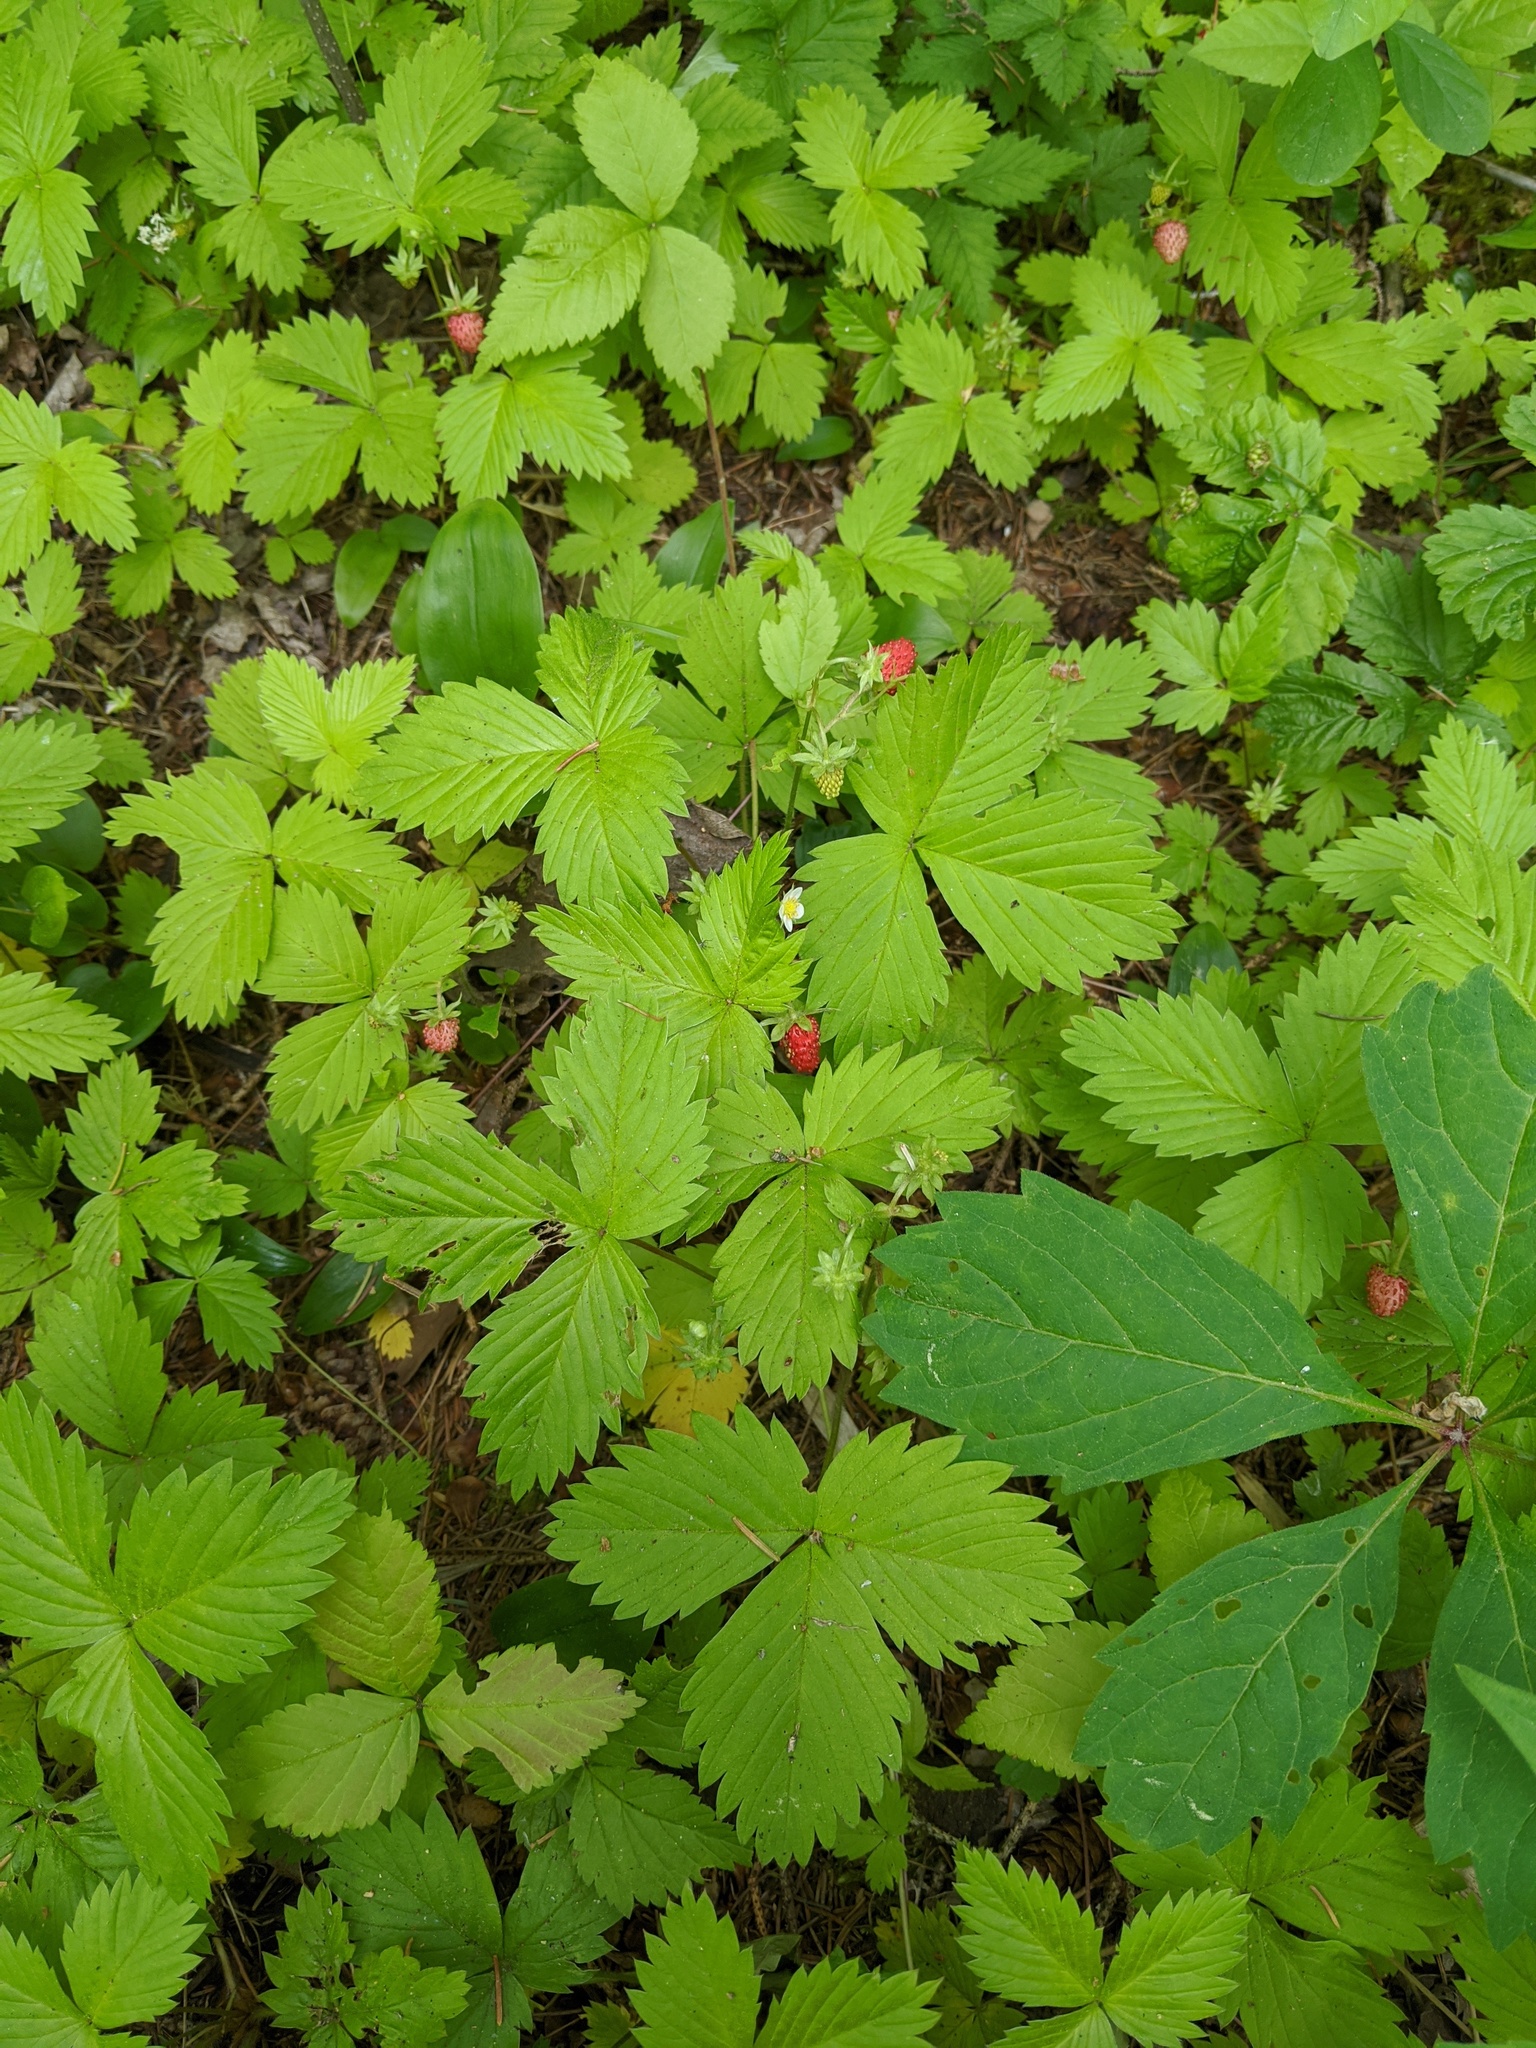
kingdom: Plantae
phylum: Tracheophyta
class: Magnoliopsida
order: Rosales
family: Rosaceae
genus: Fragaria
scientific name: Fragaria vesca
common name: Wild strawberry
